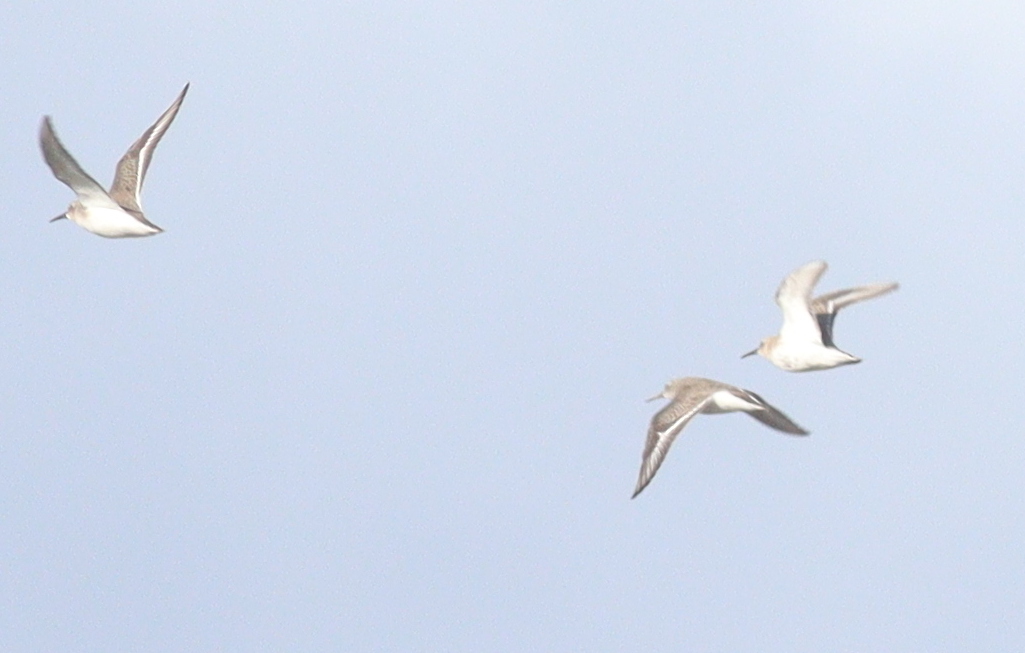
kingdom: Animalia
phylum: Chordata
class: Aves
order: Charadriiformes
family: Scolopacidae
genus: Calidris
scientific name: Calidris alpina
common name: Dunlin
